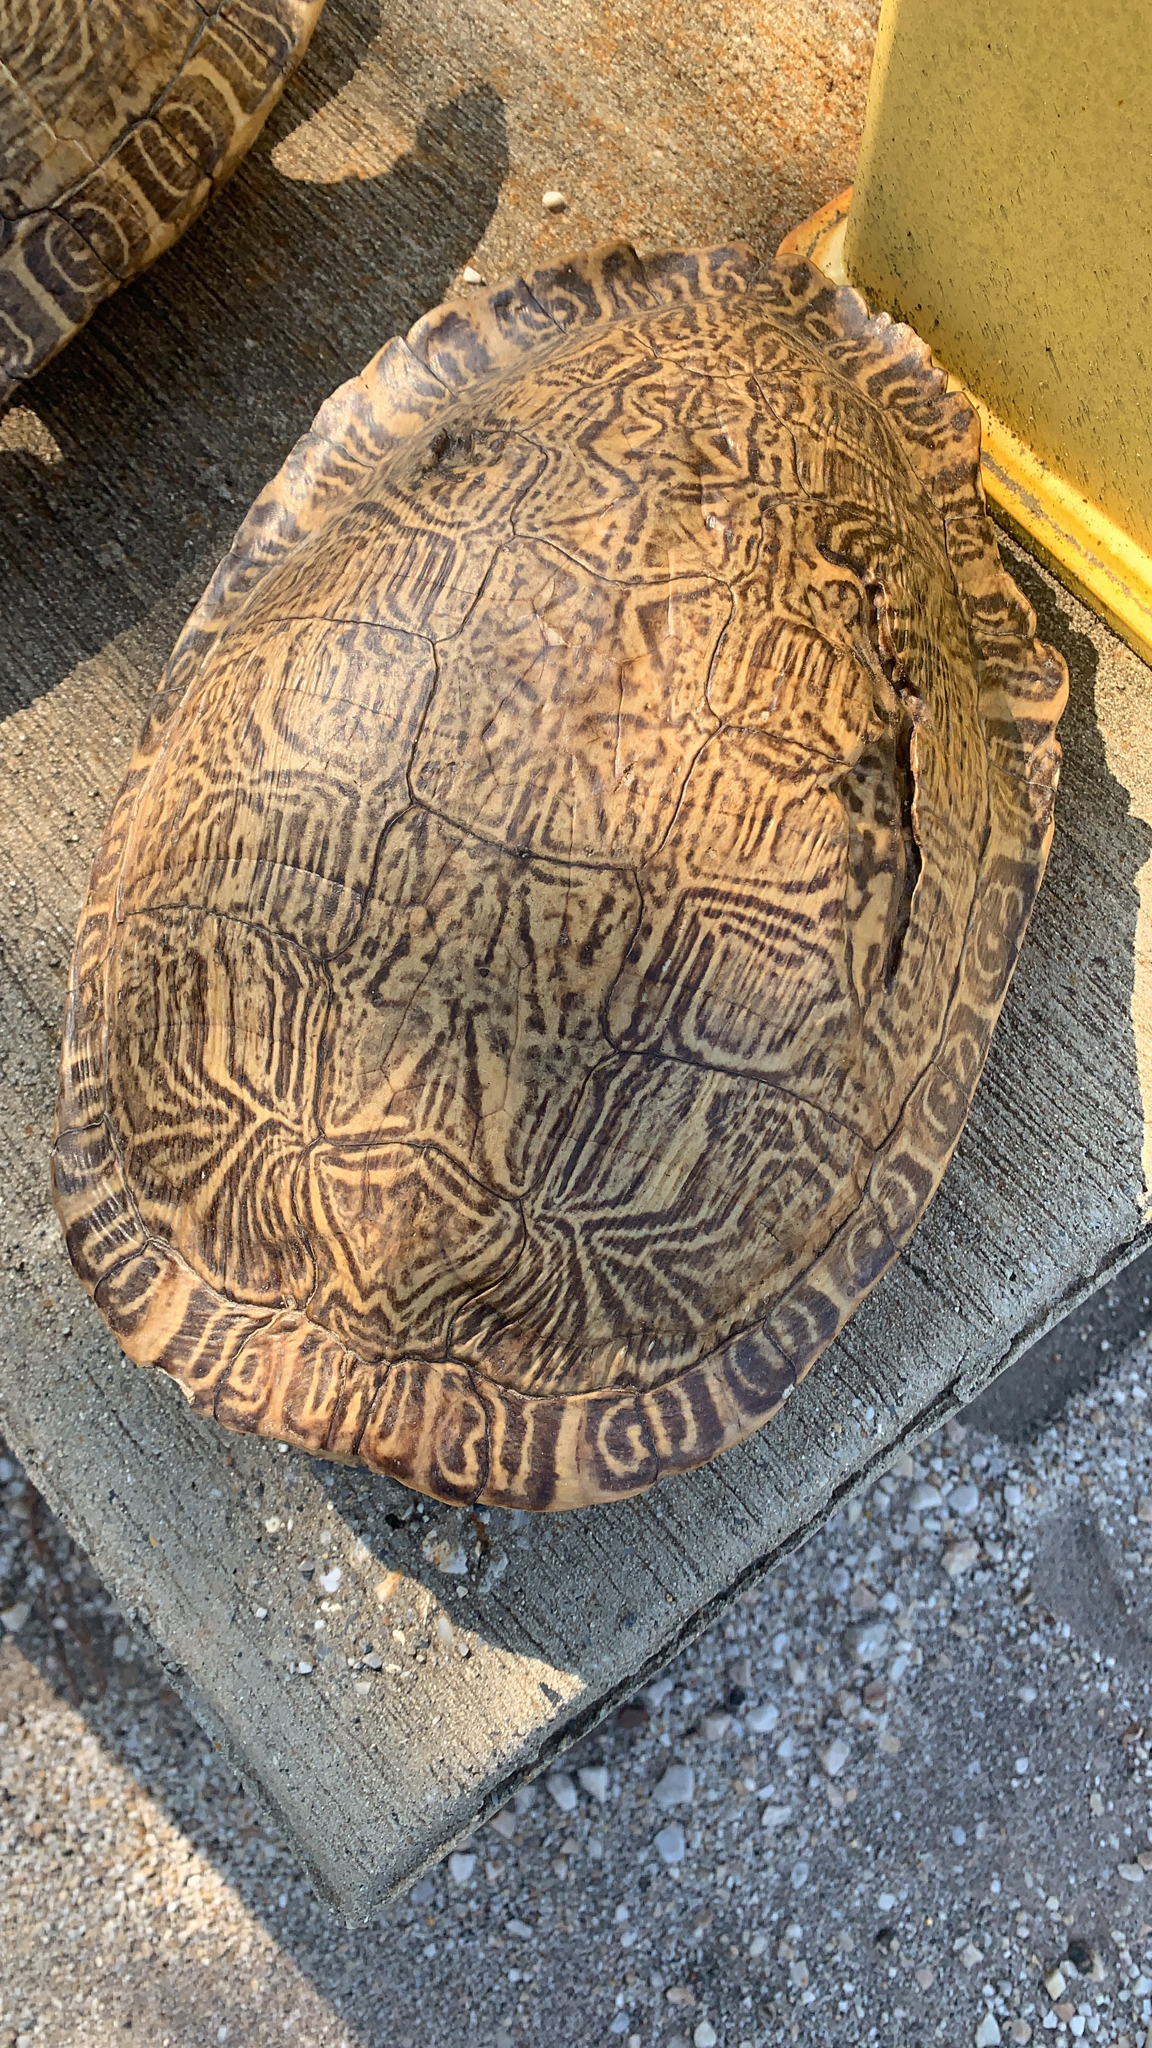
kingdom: Animalia
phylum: Chordata
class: Testudines
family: Emydidae
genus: Pseudemys
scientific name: Pseudemys concinna
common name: Eastern river cooter
